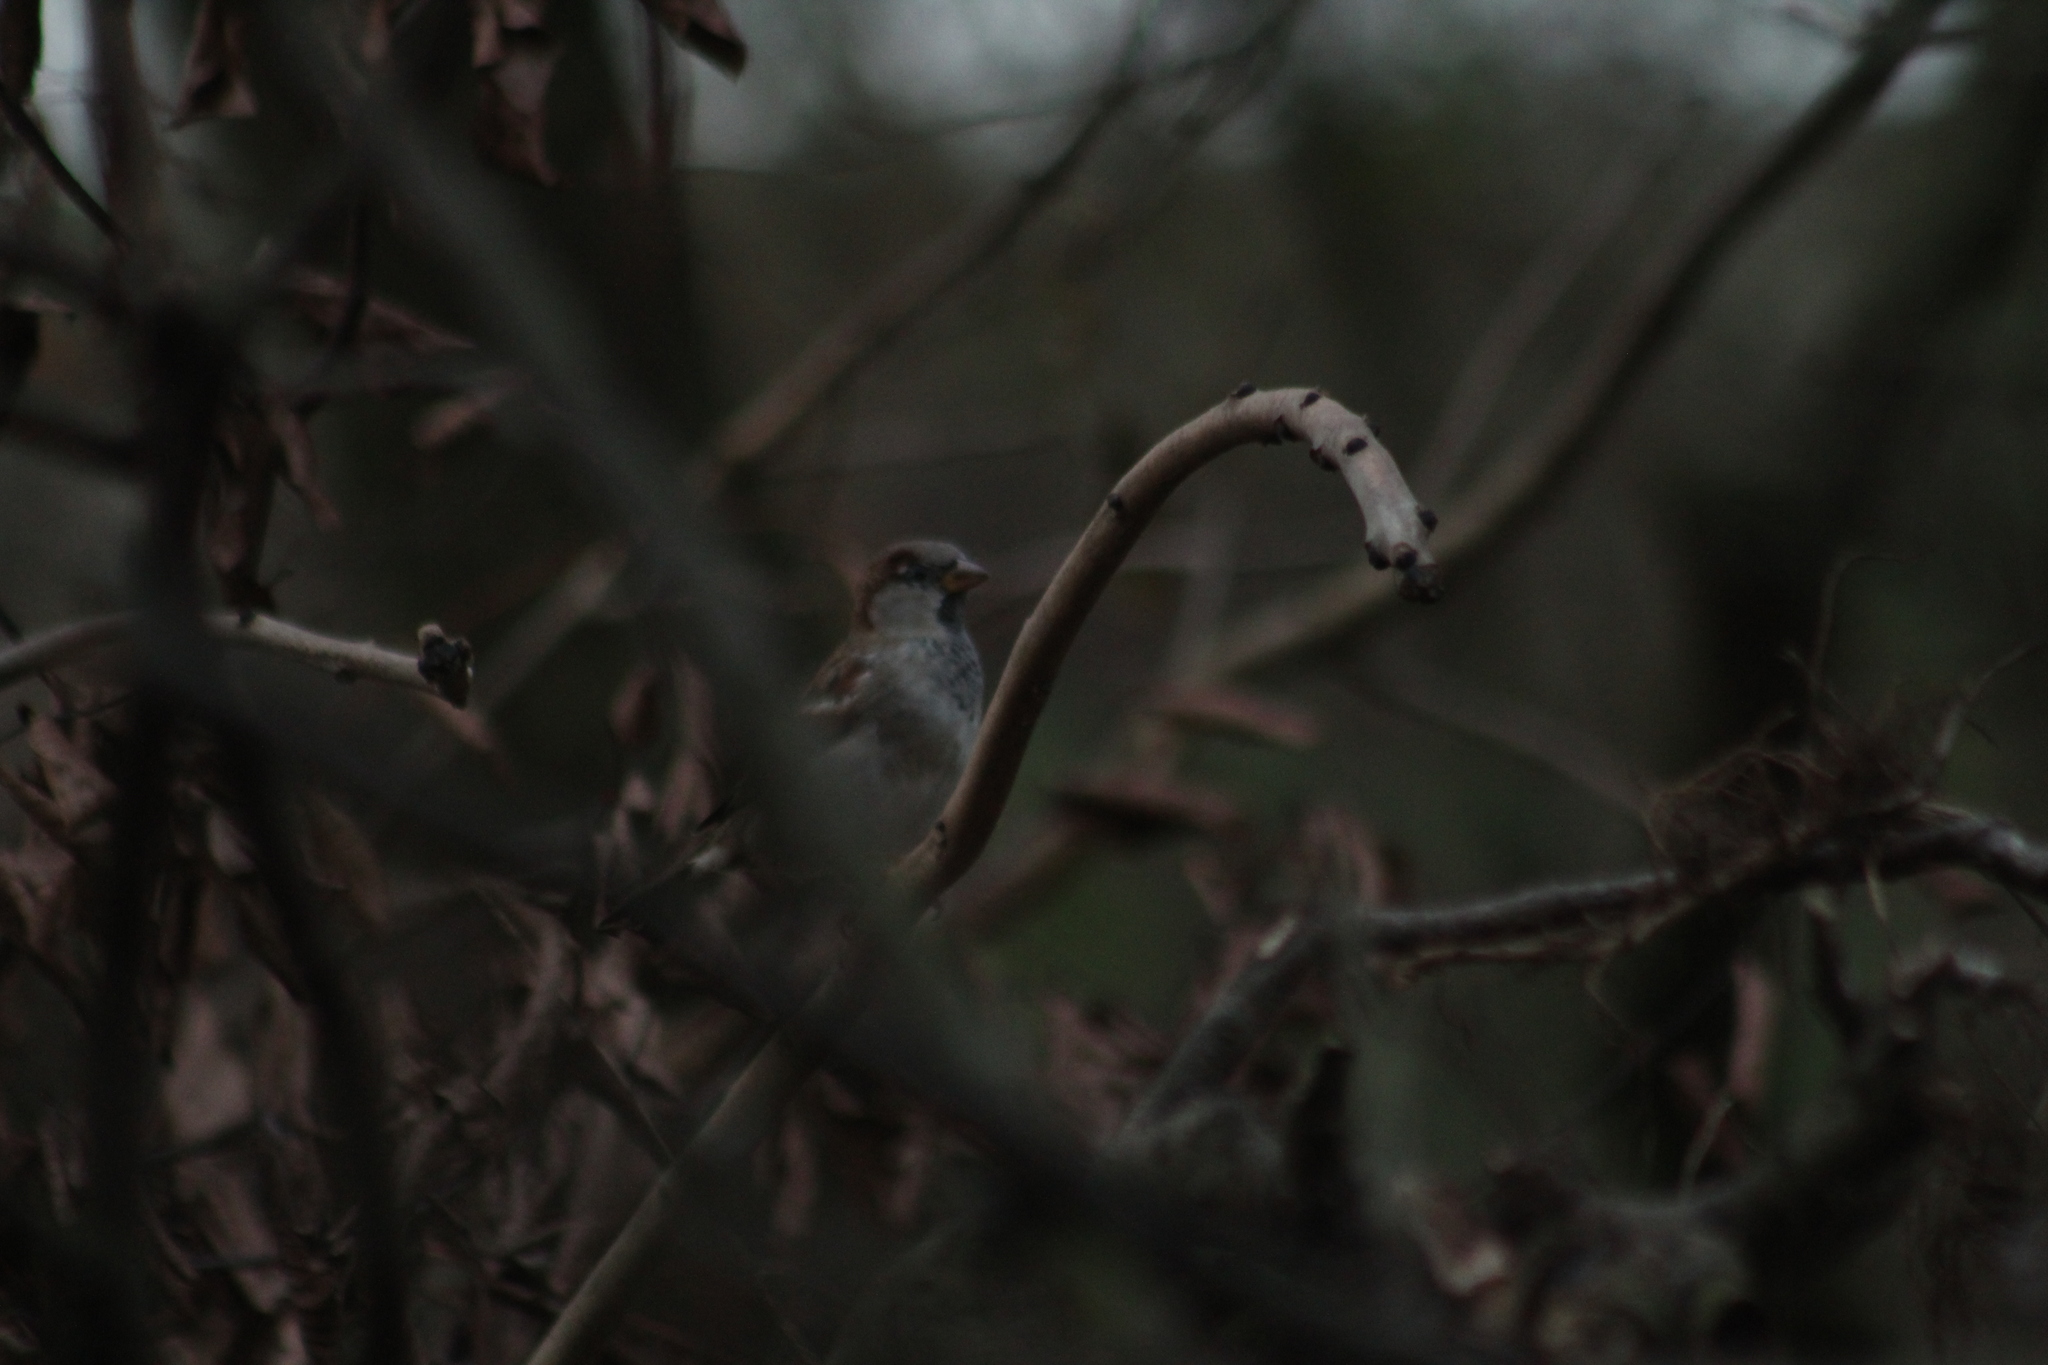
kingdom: Animalia
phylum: Chordata
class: Aves
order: Passeriformes
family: Passeridae
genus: Passer
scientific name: Passer domesticus
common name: House sparrow
